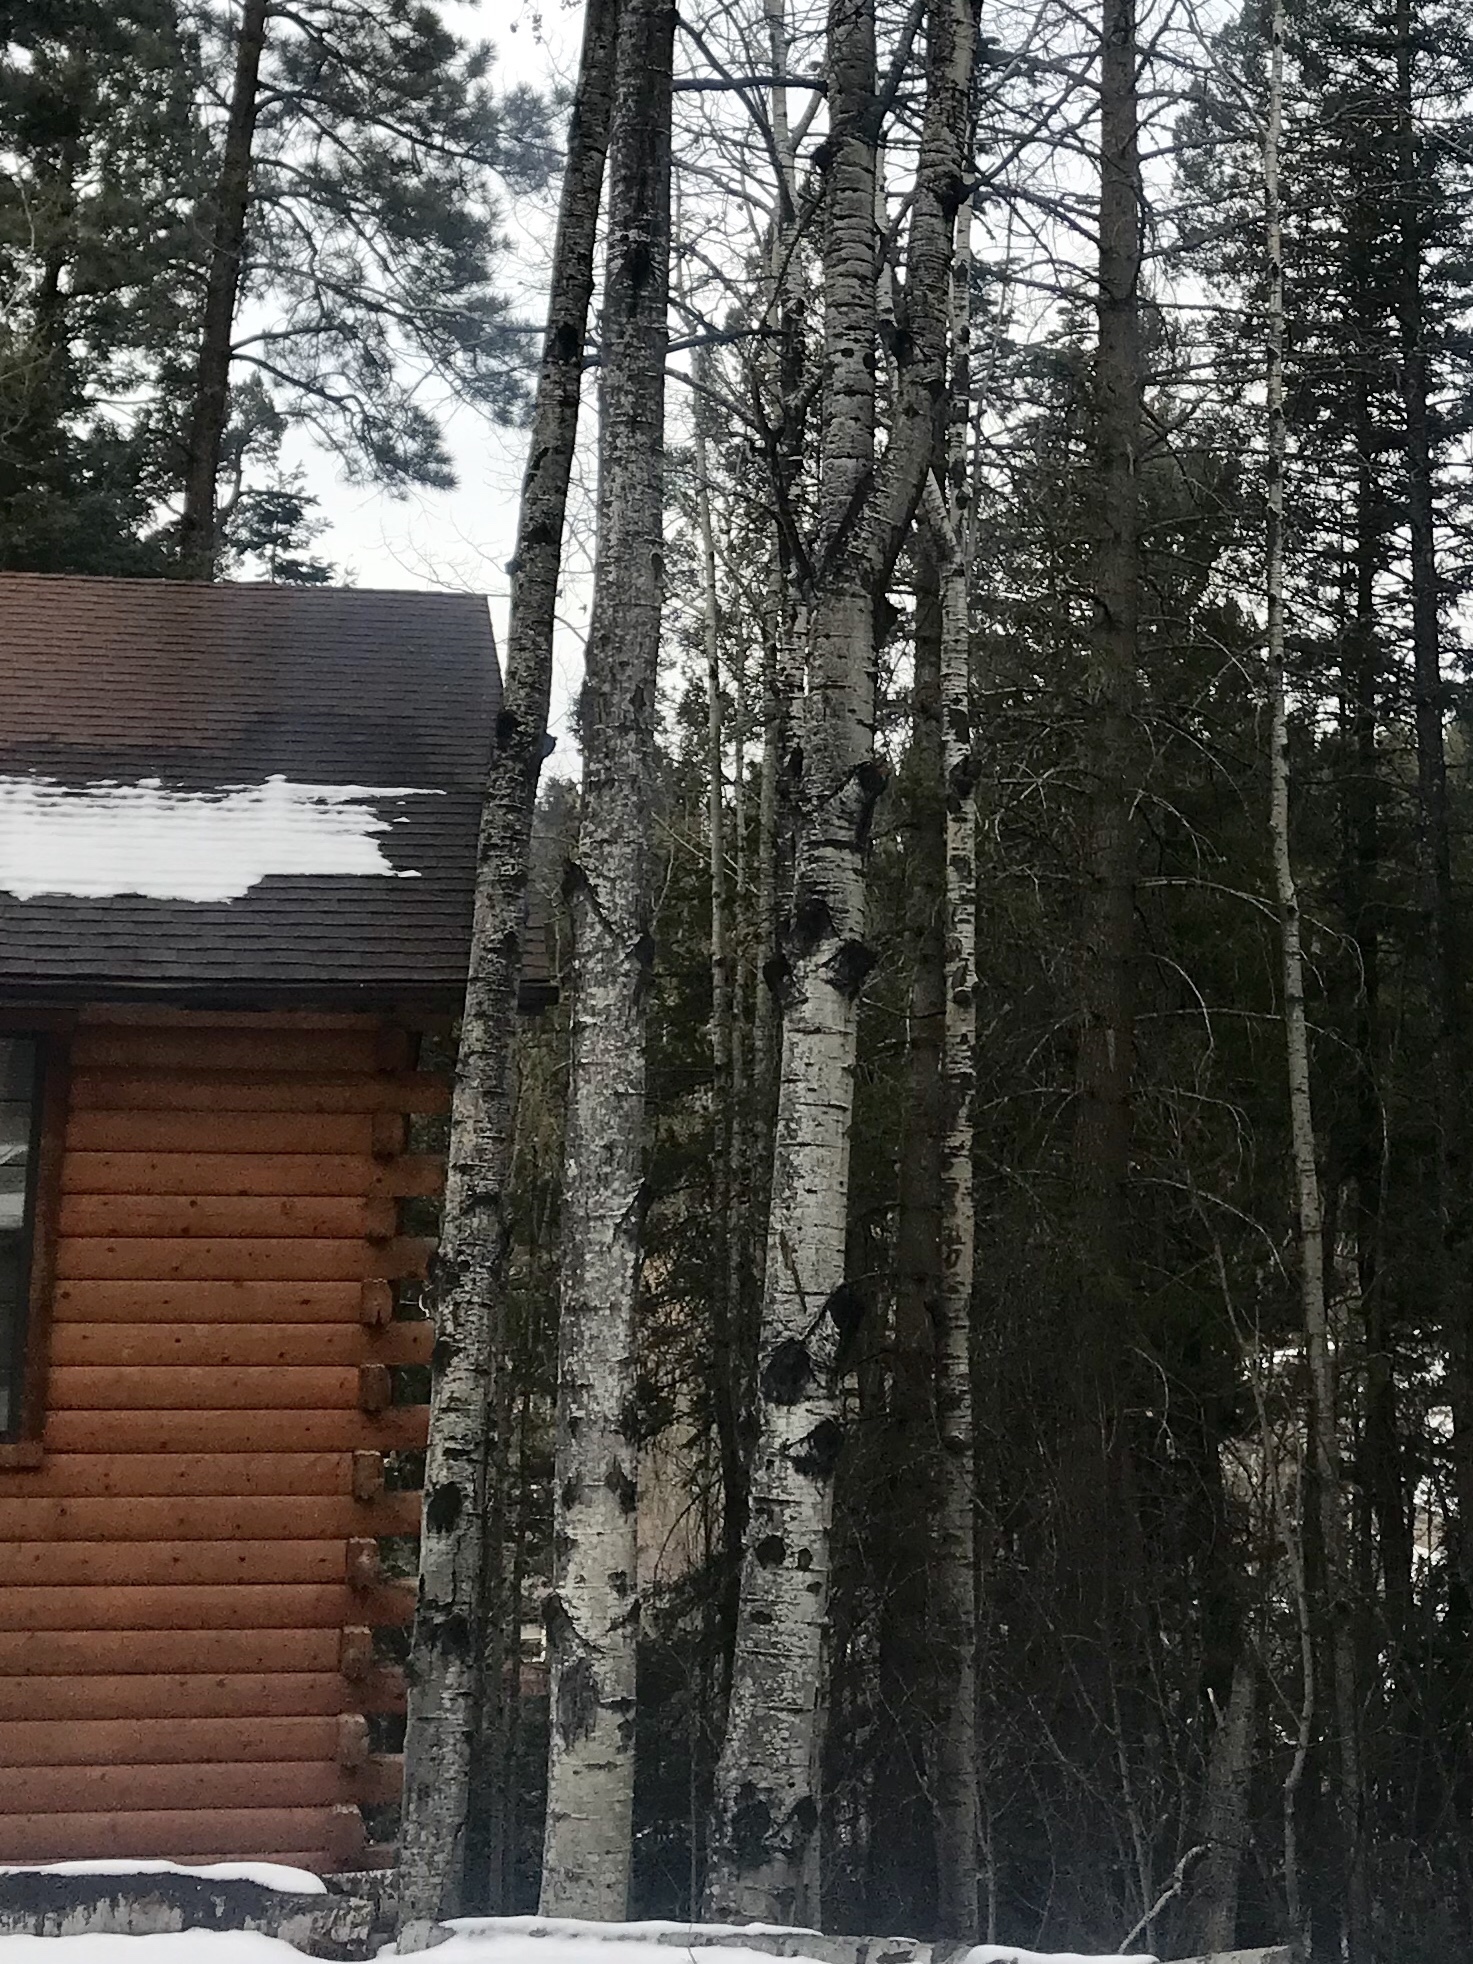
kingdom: Plantae
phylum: Tracheophyta
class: Magnoliopsida
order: Malpighiales
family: Salicaceae
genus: Populus
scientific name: Populus tremuloides
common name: Quaking aspen
